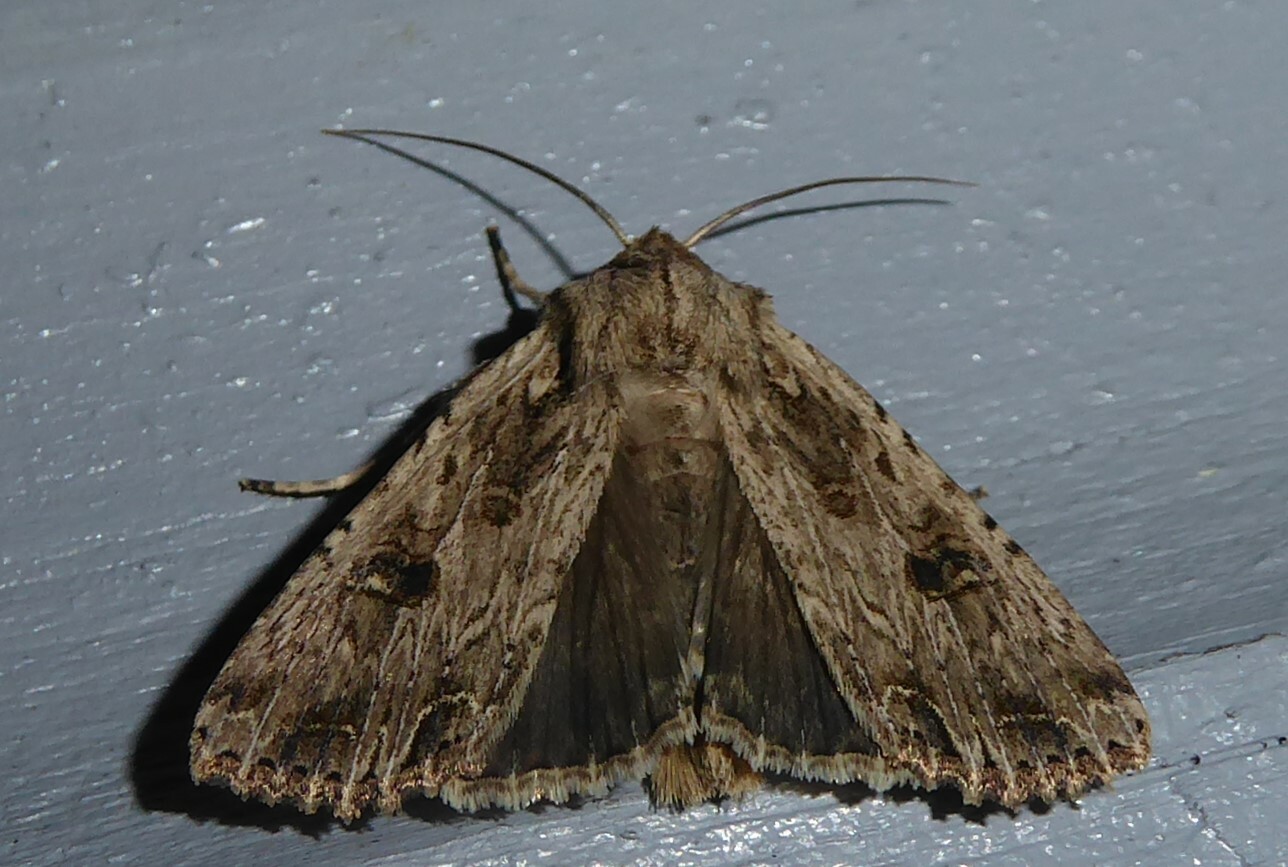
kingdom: Animalia
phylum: Arthropoda
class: Insecta
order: Lepidoptera
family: Noctuidae
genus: Ichneutica
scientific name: Ichneutica lignana
